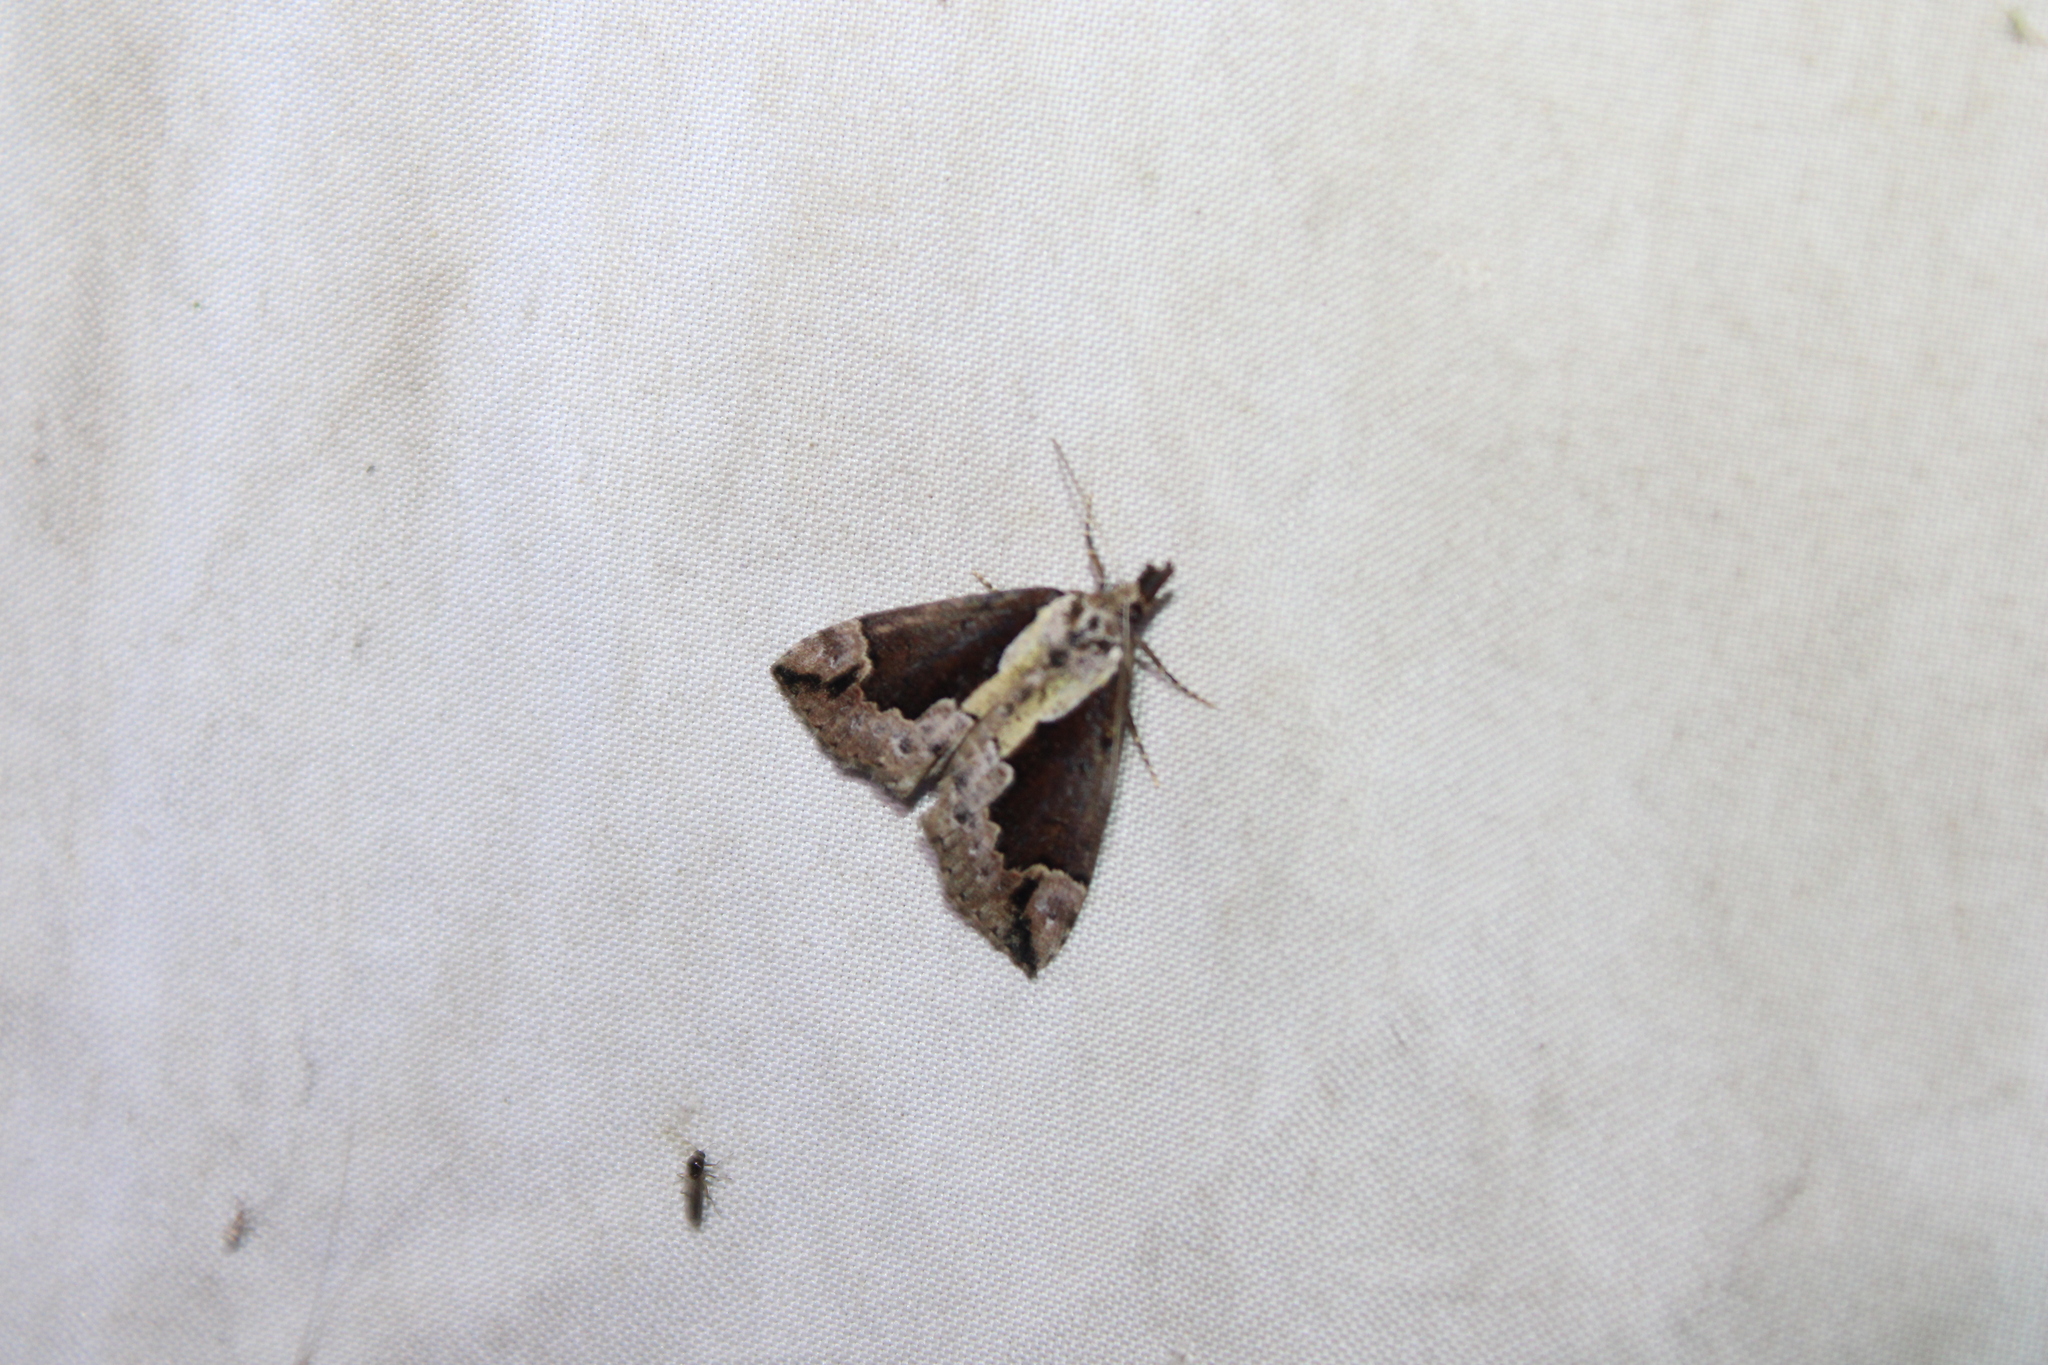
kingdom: Animalia
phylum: Arthropoda
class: Insecta
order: Lepidoptera
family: Erebidae
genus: Hypena
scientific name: Hypena baltimoralis
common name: Baltimore snout
